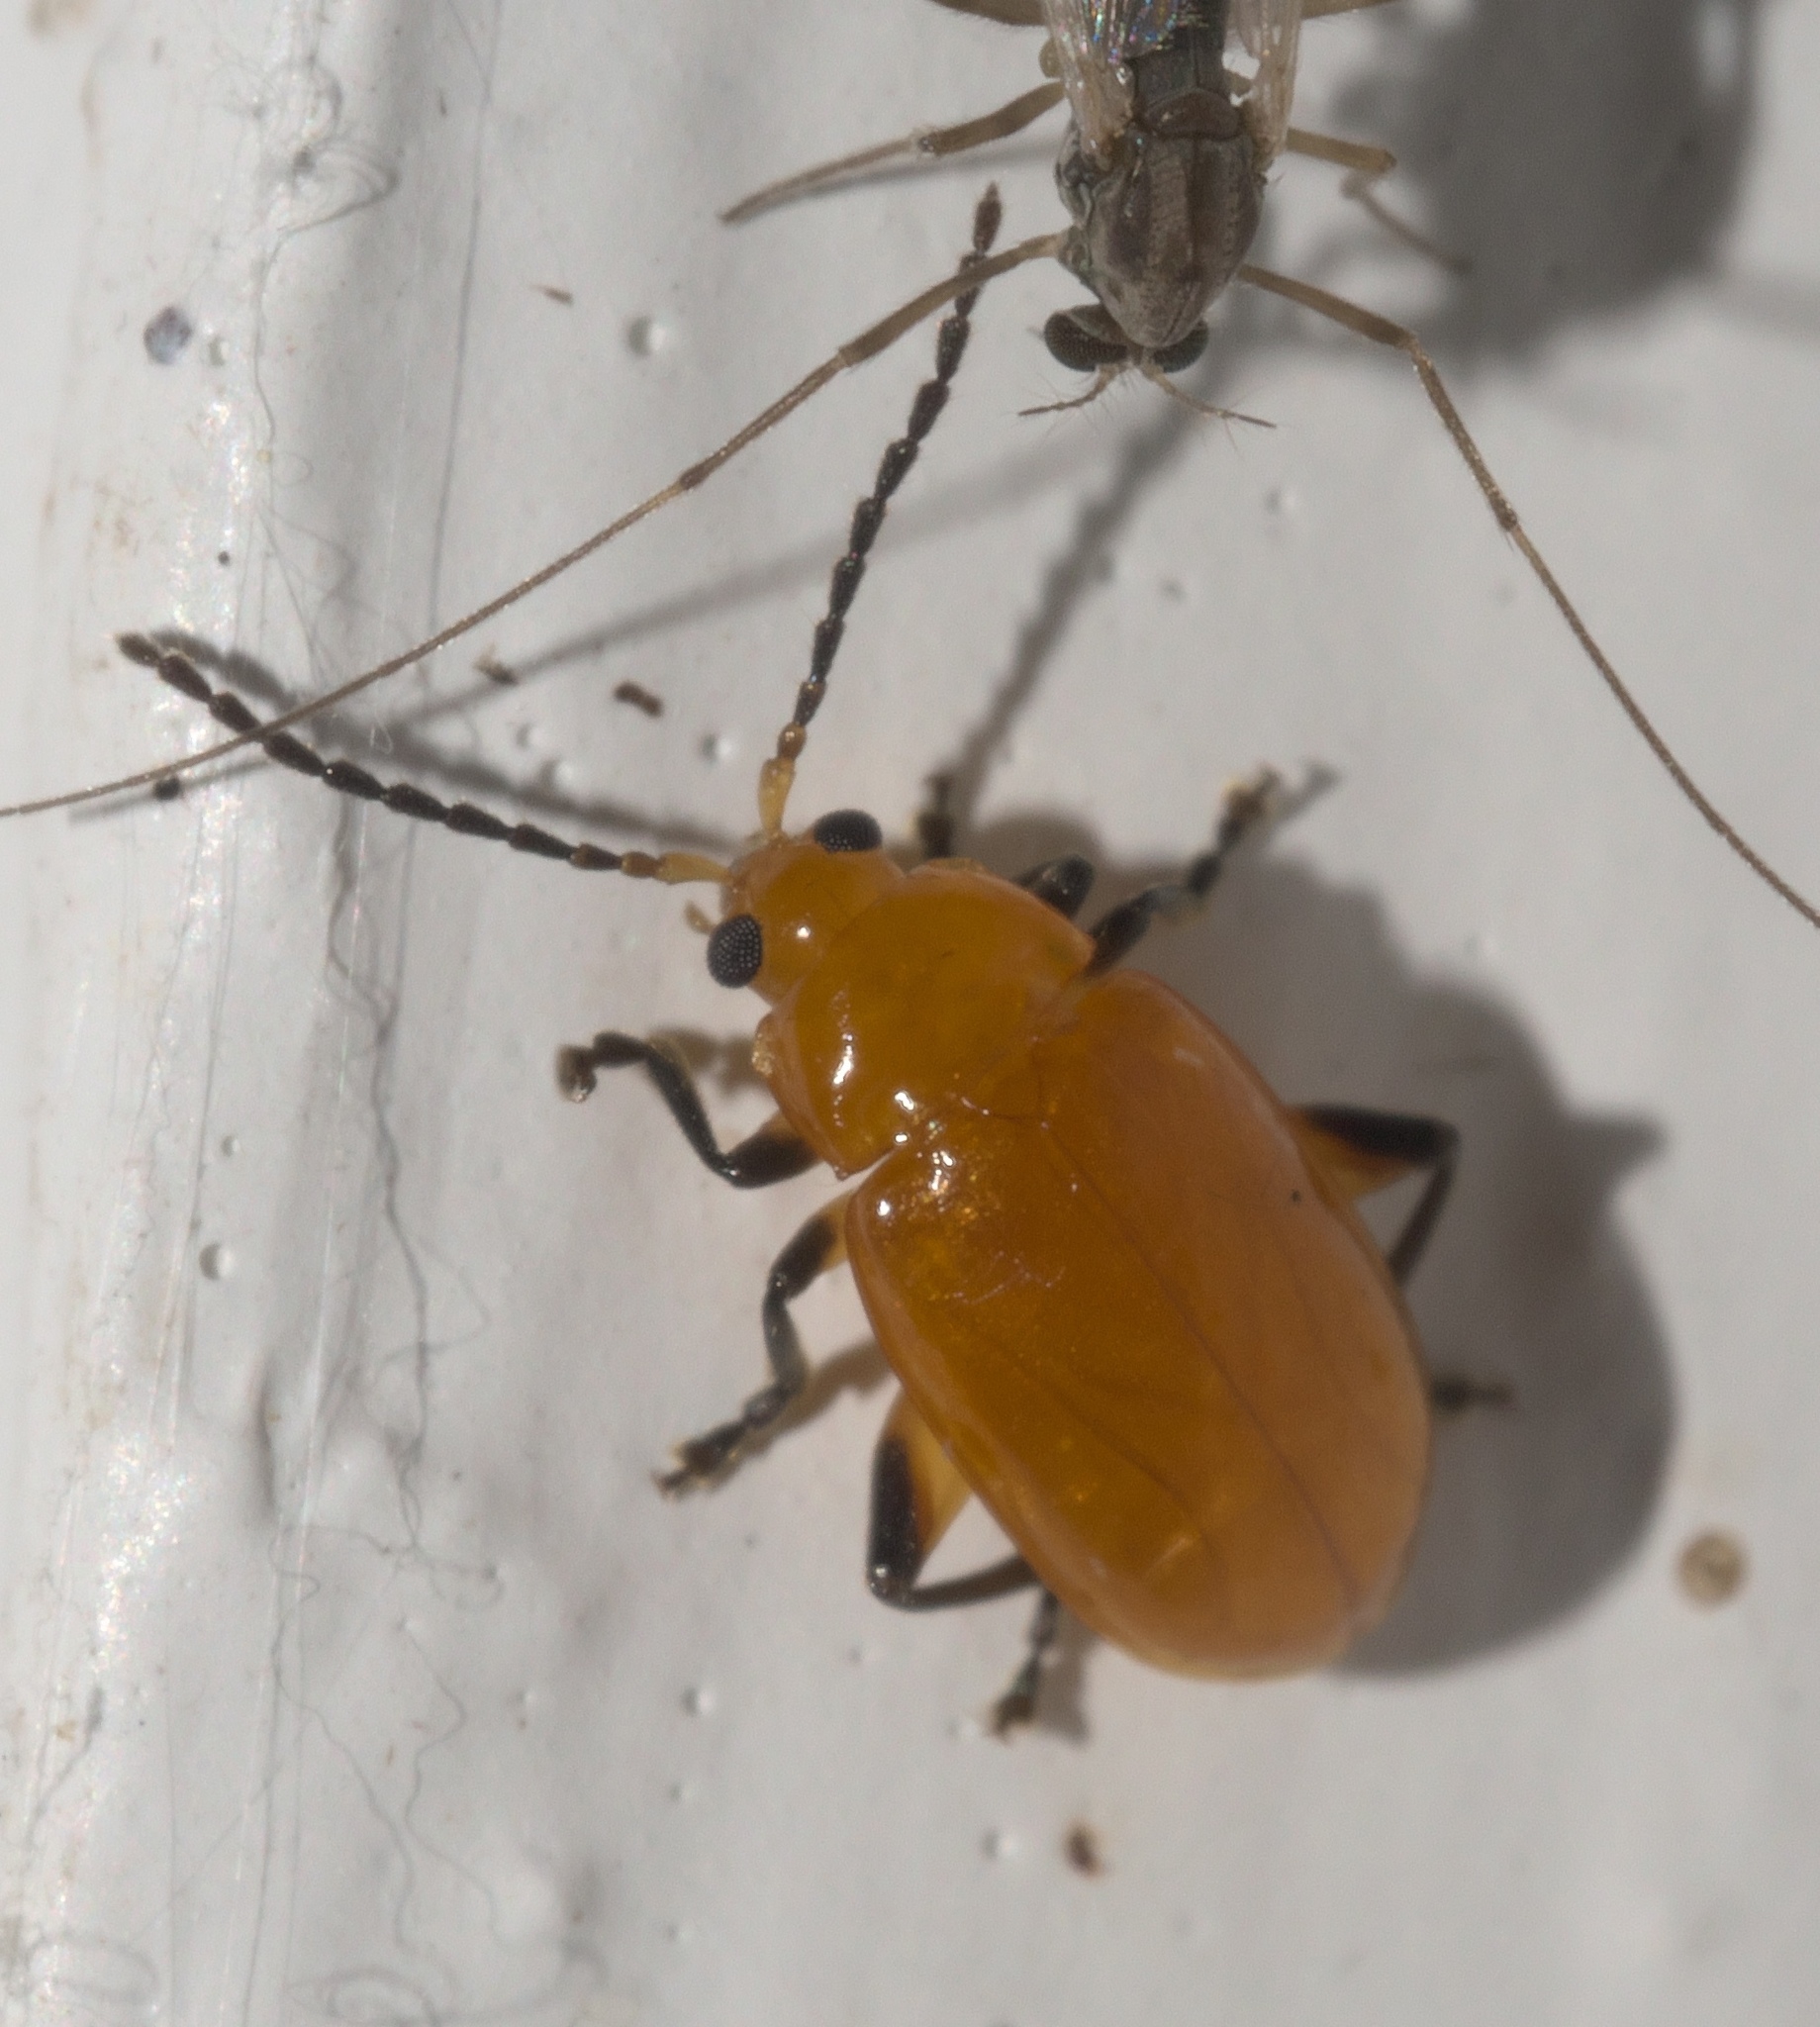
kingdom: Animalia
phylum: Arthropoda
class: Insecta
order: Coleoptera
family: Chrysomelidae
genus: Parchicola
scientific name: Parchicola tibialis
